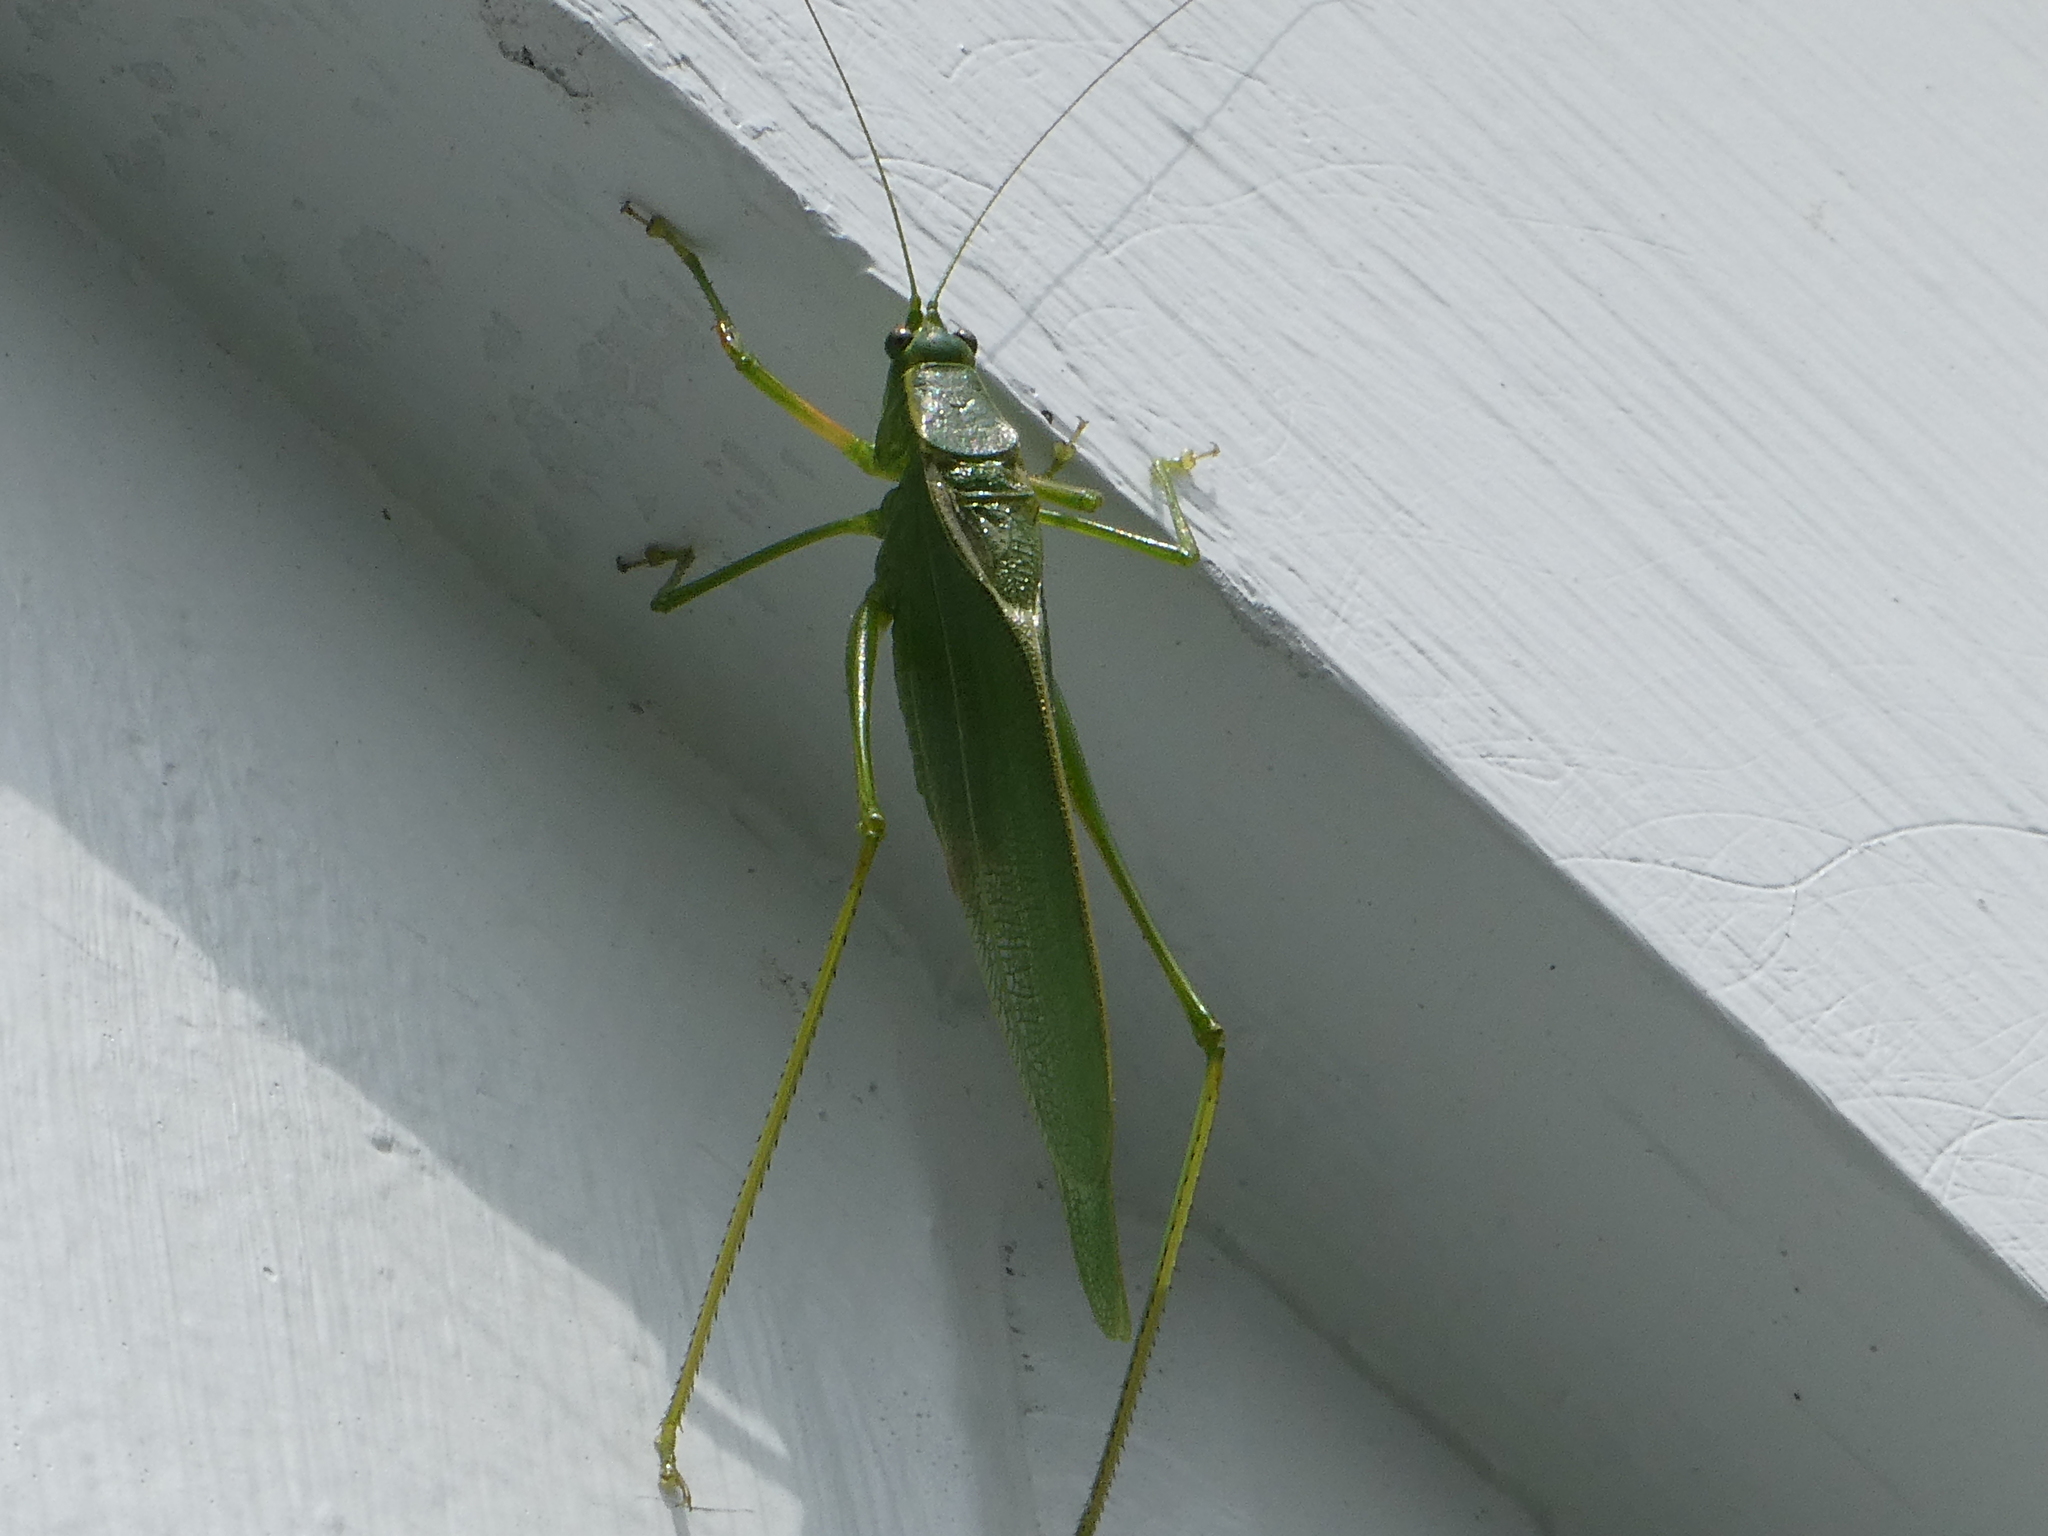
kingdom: Animalia
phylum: Arthropoda
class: Insecta
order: Orthoptera
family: Tettigoniidae
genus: Scudderia
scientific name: Scudderia septentrionalis
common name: Northern bush-katydid
